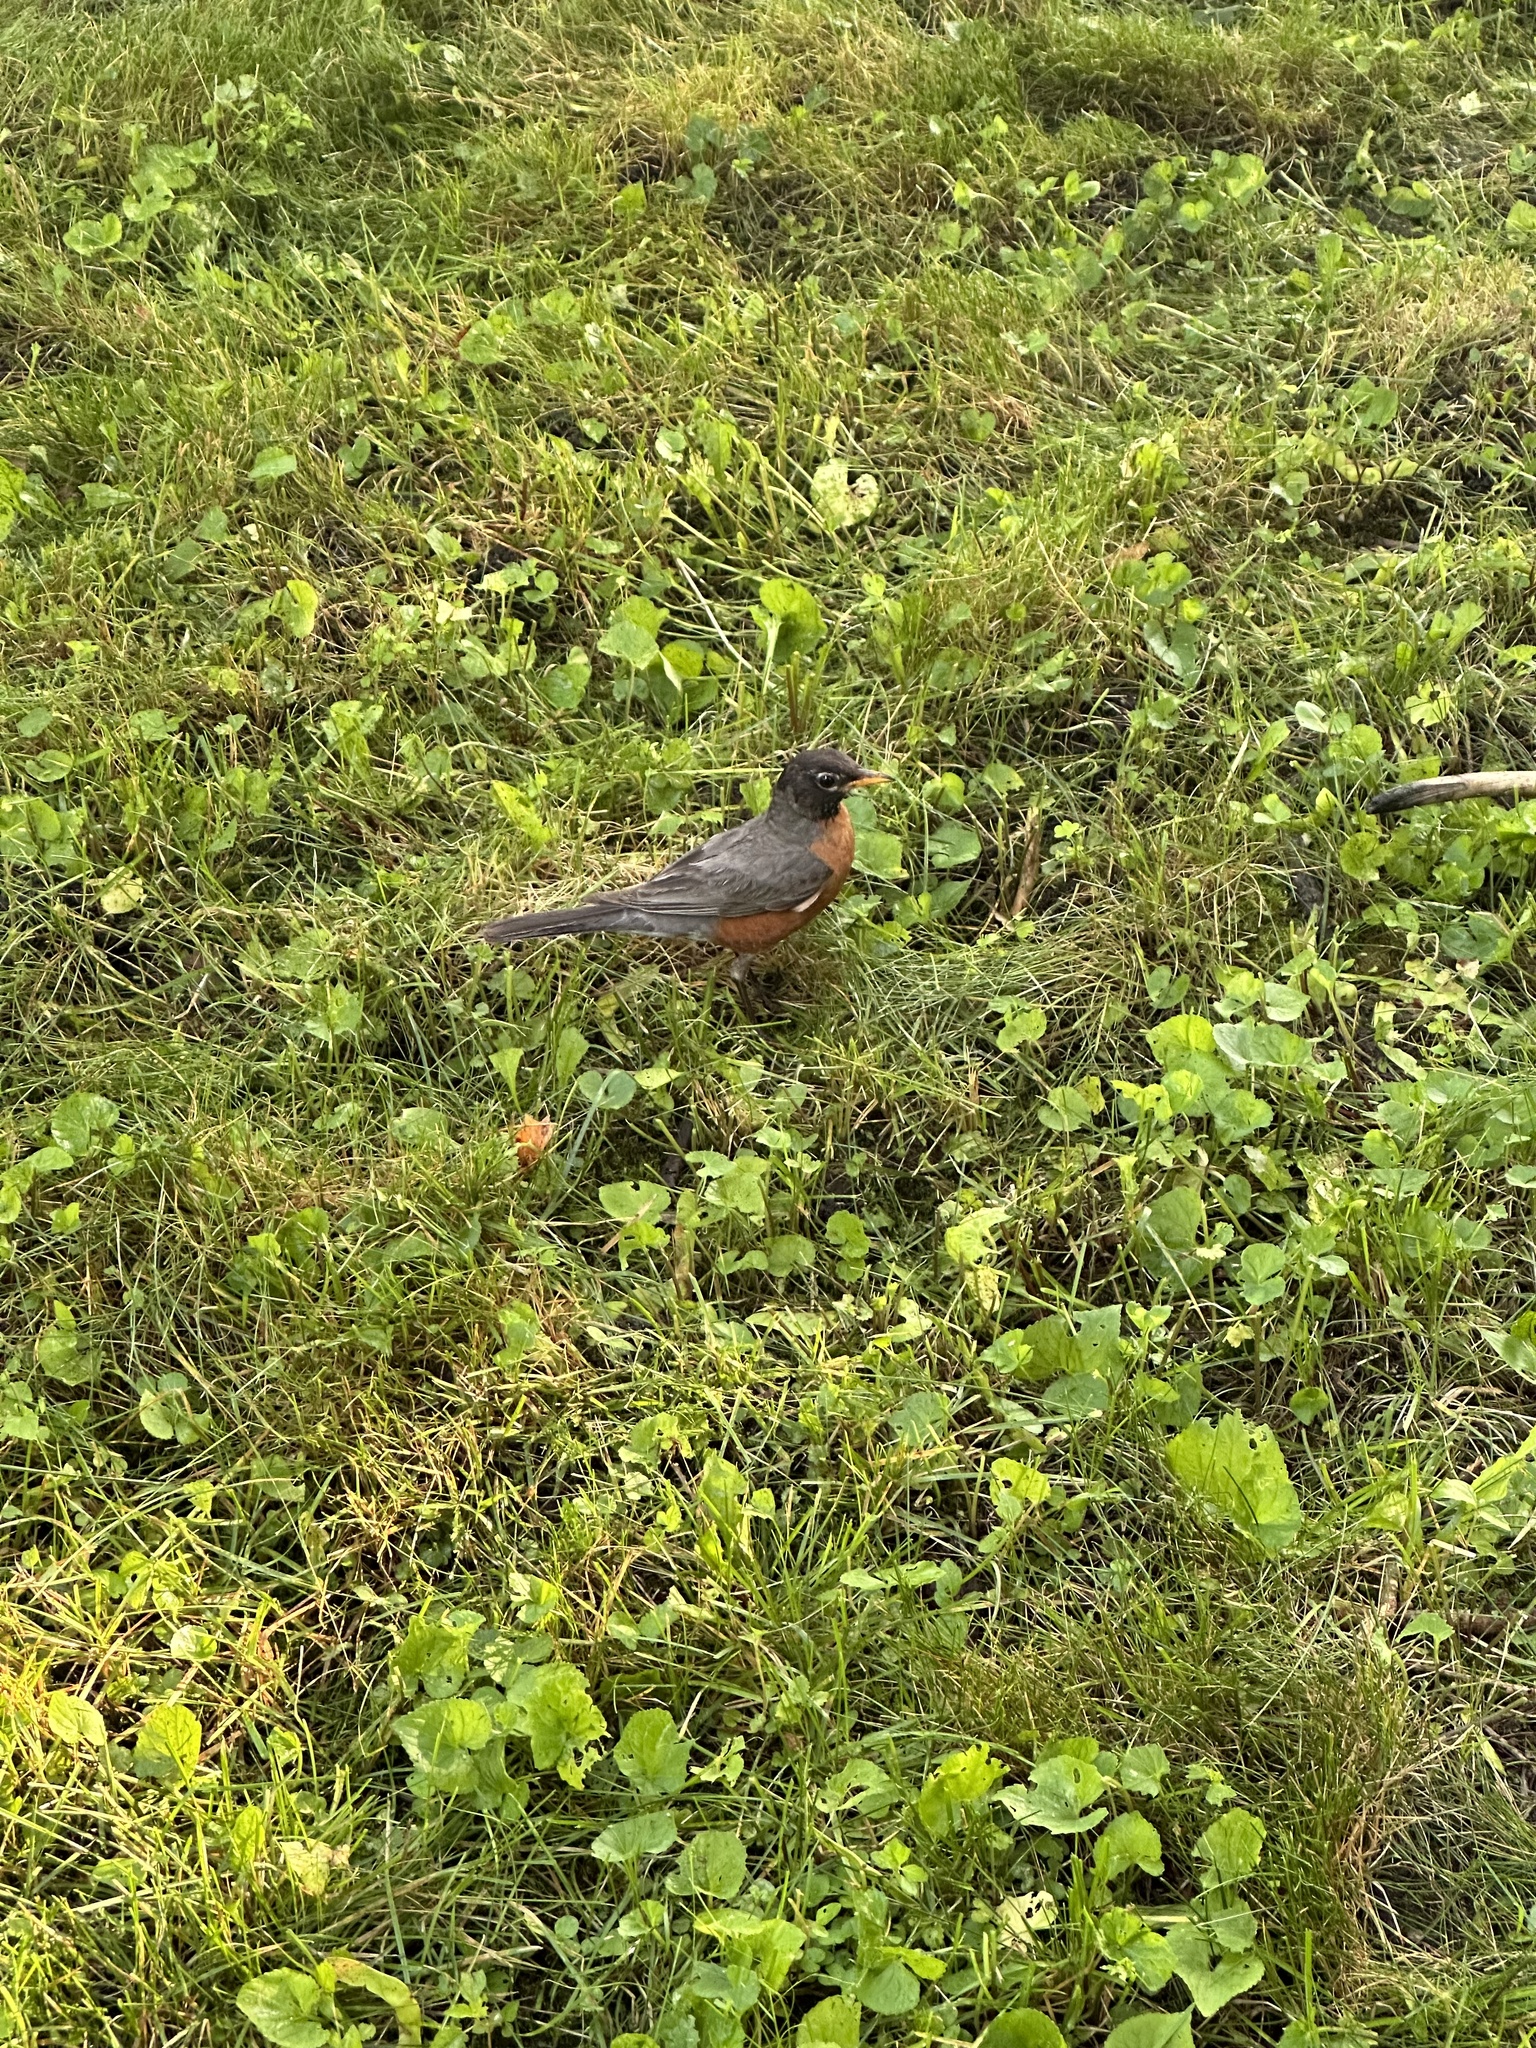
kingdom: Animalia
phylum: Chordata
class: Aves
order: Passeriformes
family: Turdidae
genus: Turdus
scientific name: Turdus migratorius
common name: American robin
